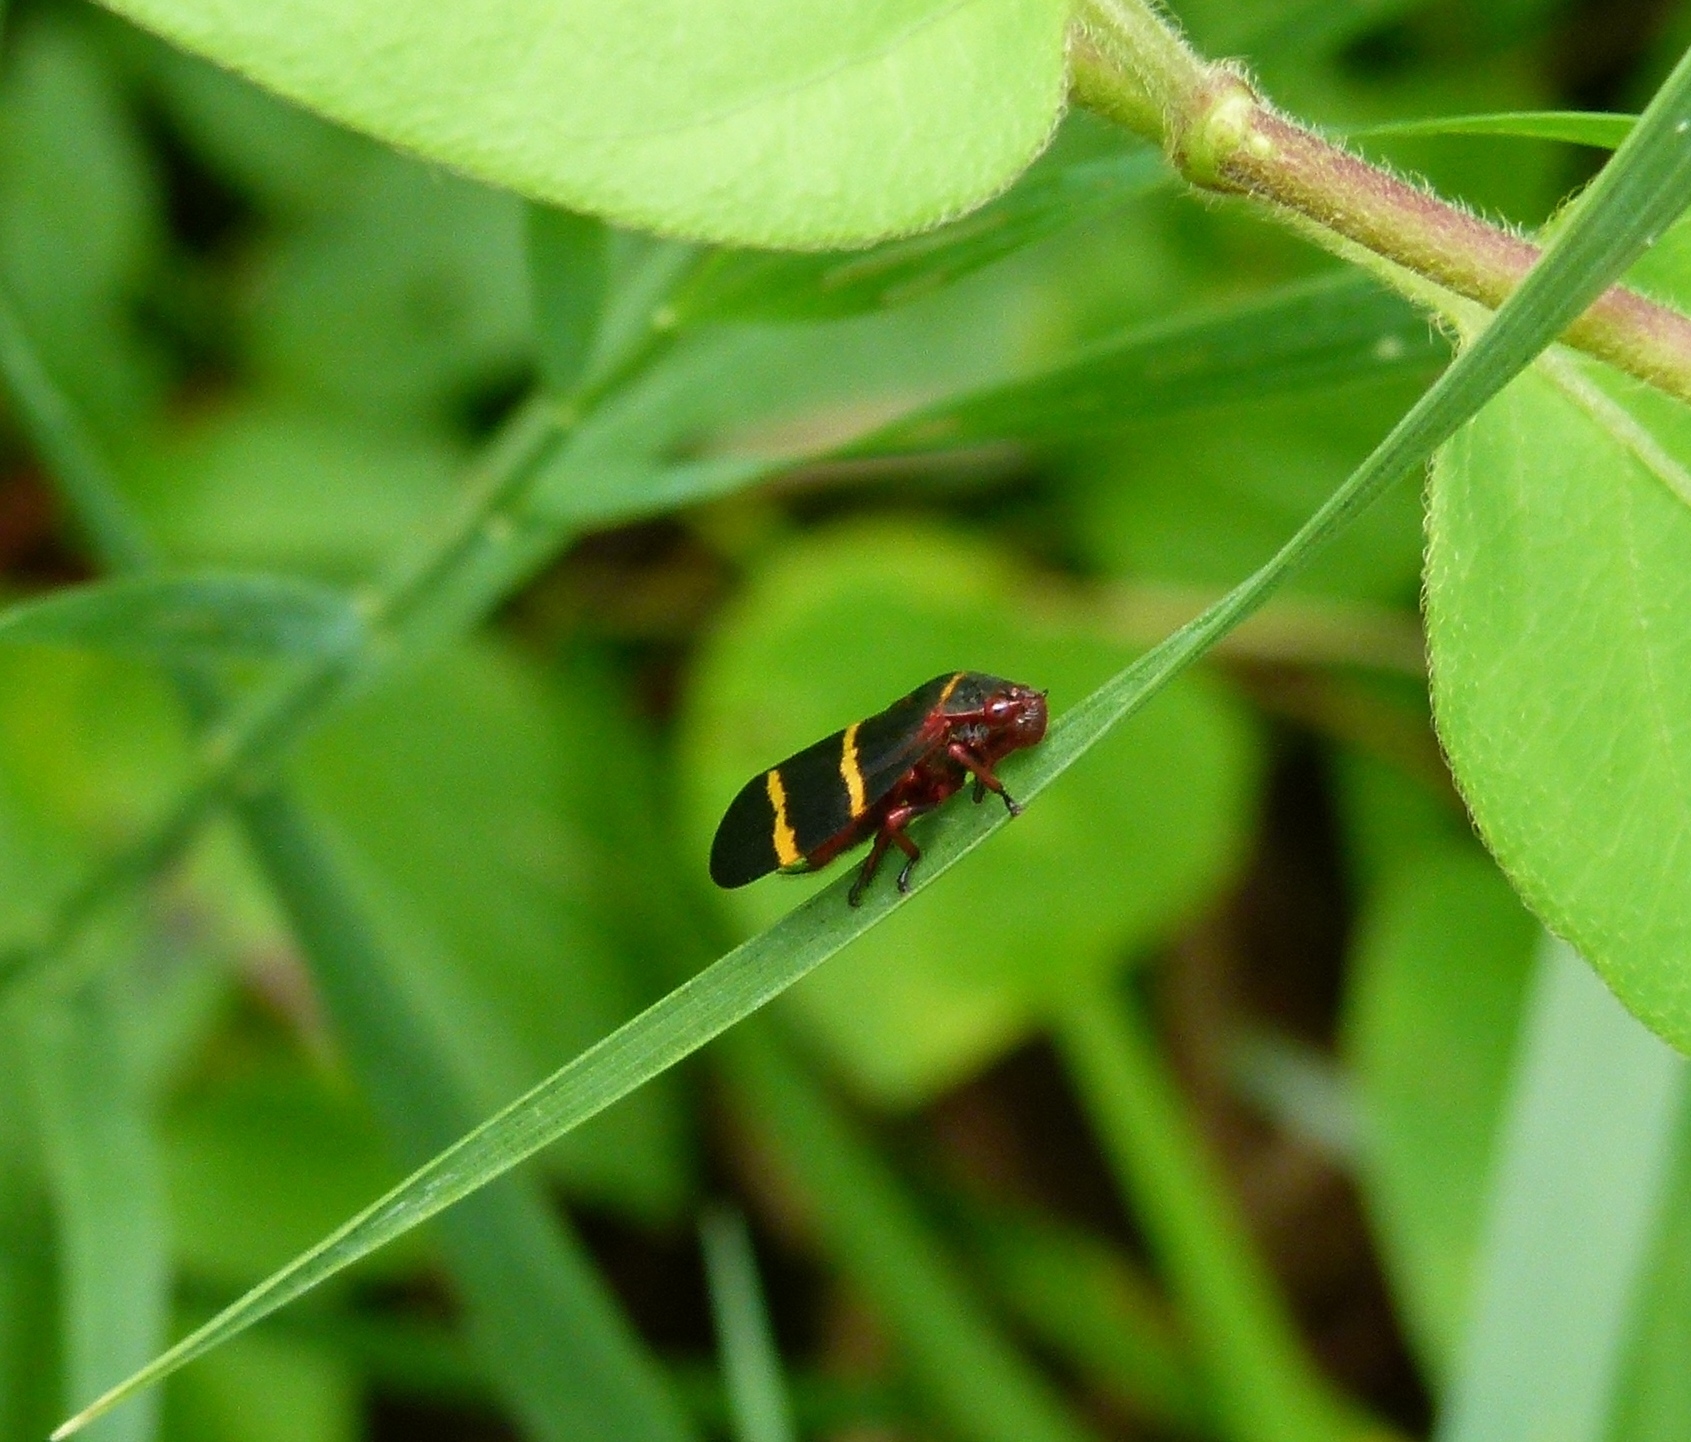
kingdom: Animalia
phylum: Arthropoda
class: Insecta
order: Hemiptera
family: Cercopidae
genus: Prosapia
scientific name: Prosapia bicincta
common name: Twolined spittlebug
